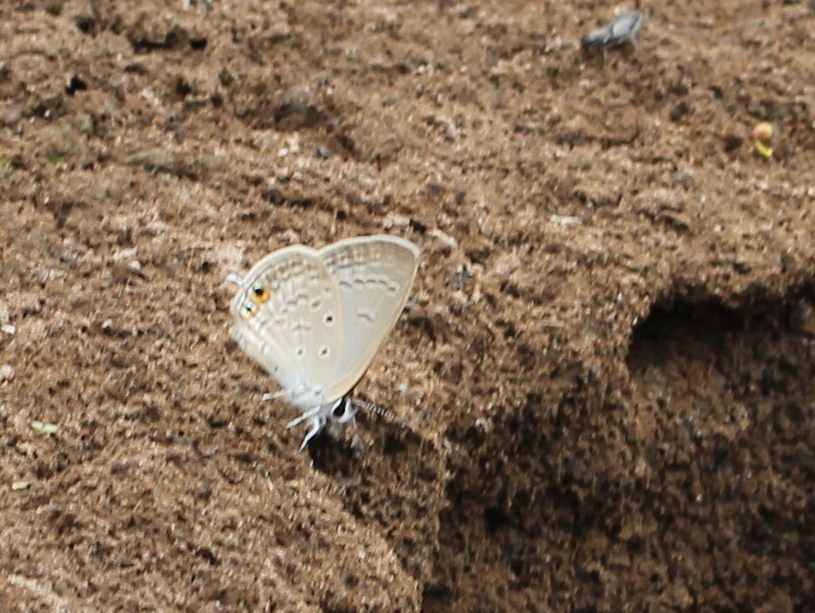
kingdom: Animalia
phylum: Arthropoda
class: Insecta
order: Lepidoptera
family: Lycaenidae
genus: Euchrysops
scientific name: Euchrysops cnejus
